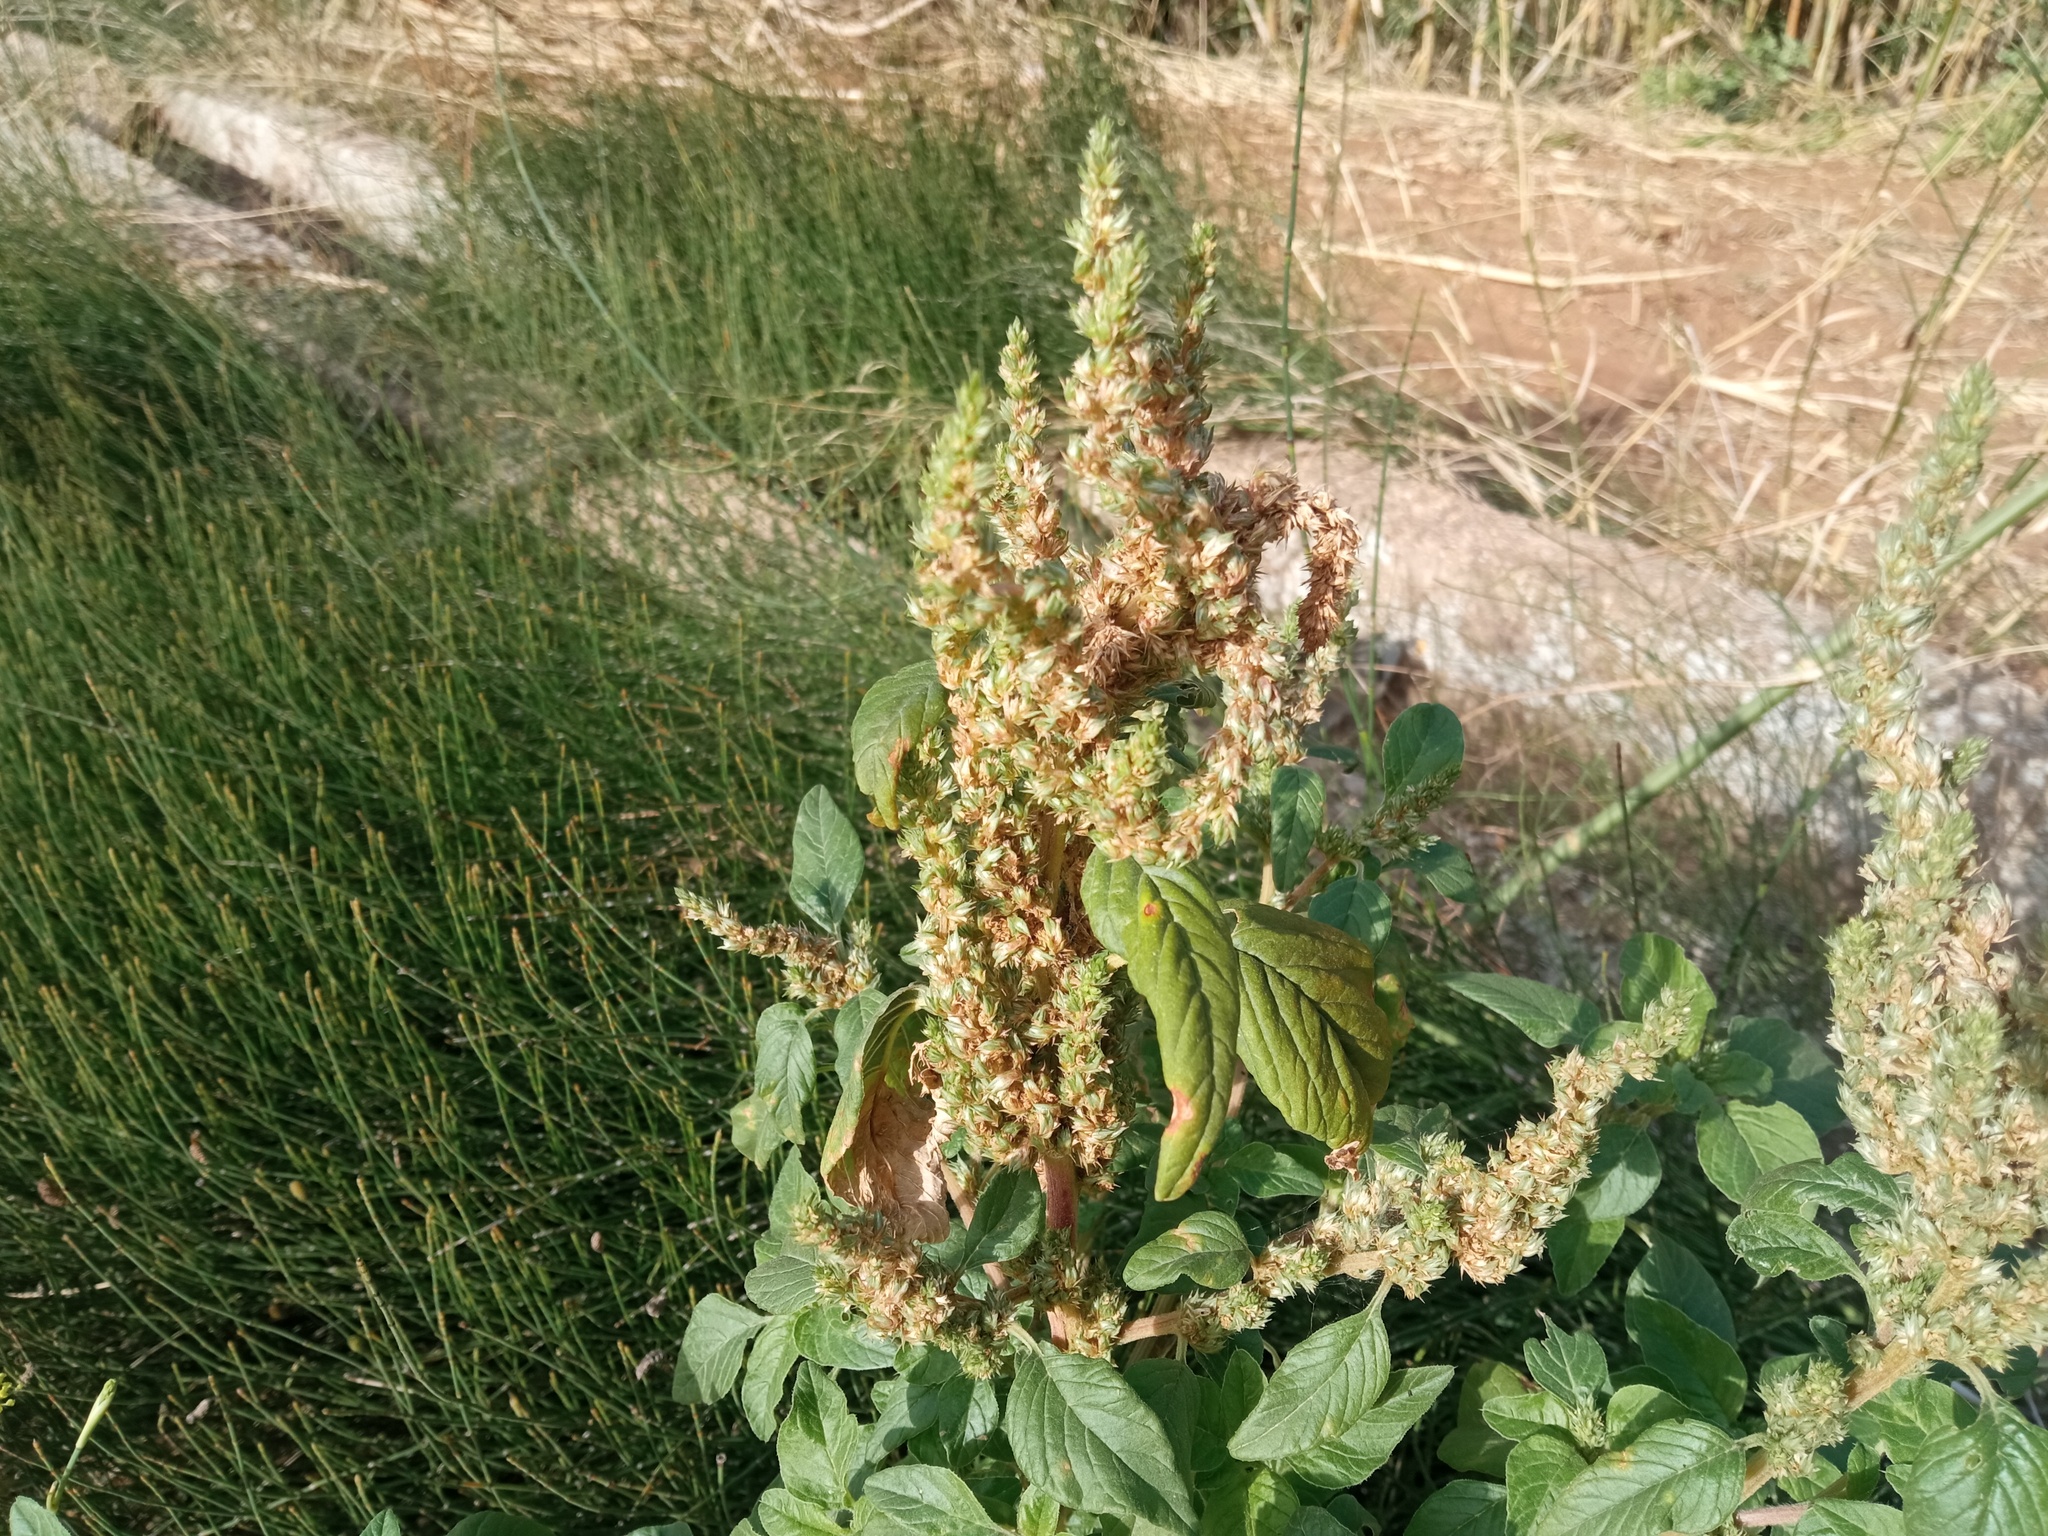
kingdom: Plantae
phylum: Tracheophyta
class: Magnoliopsida
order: Caryophyllales
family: Amaranthaceae
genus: Amaranthus
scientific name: Amaranthus retroflexus
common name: Redroot amaranth
